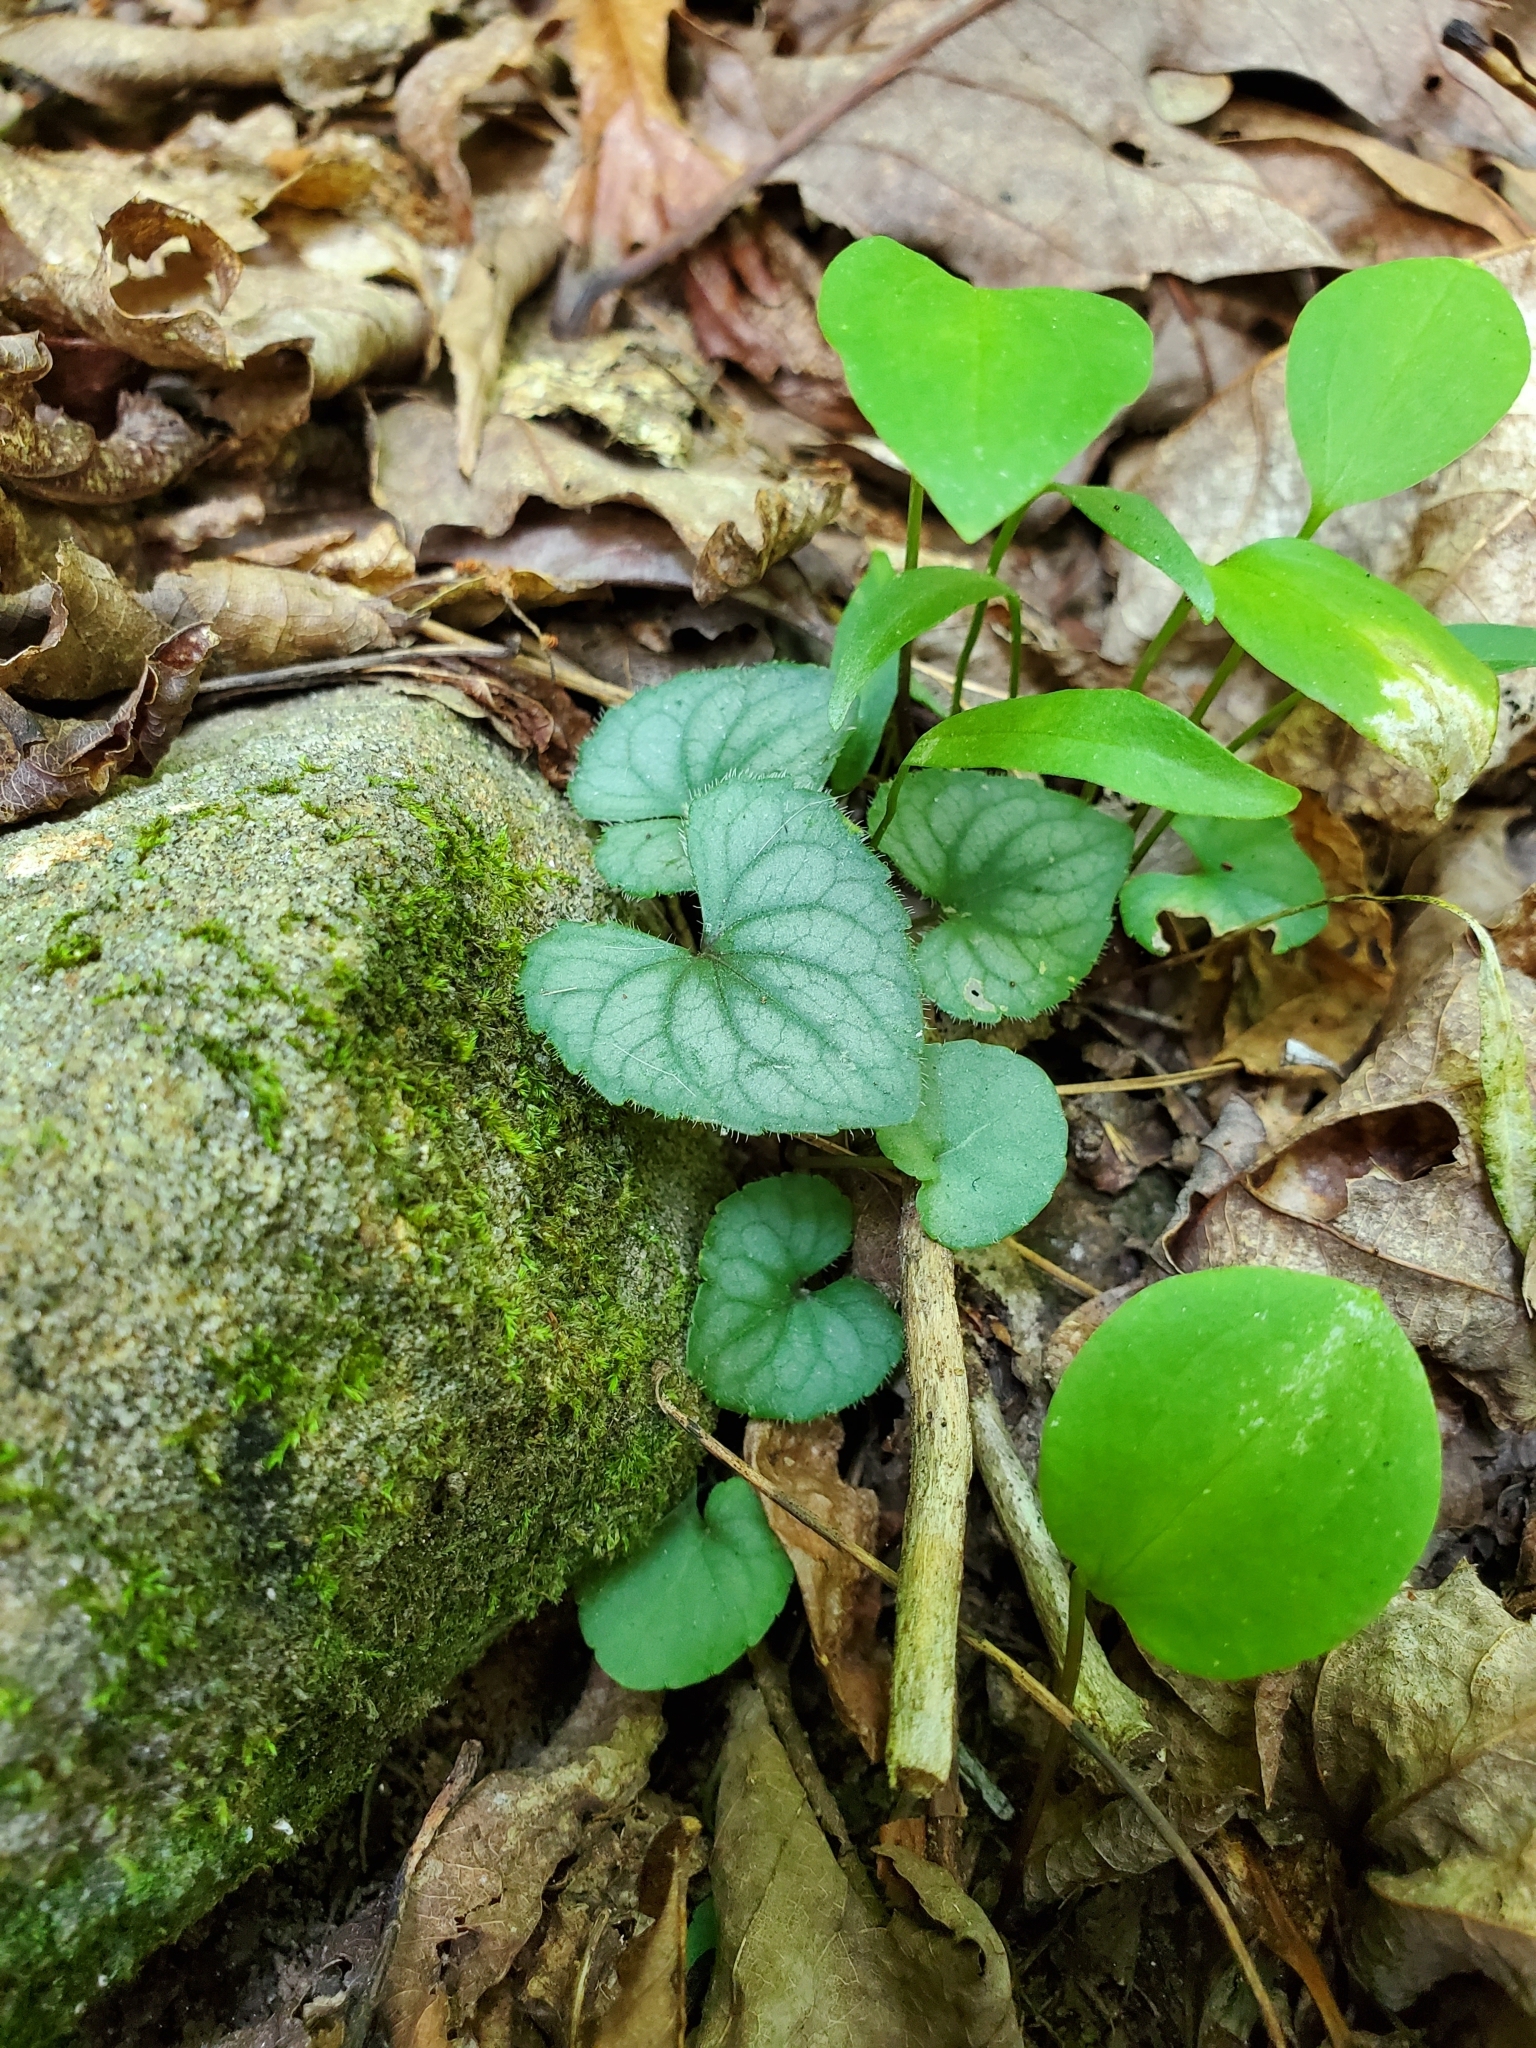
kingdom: Plantae
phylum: Tracheophyta
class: Magnoliopsida
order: Malpighiales
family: Violaceae
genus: Viola
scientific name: Viola hirsutula
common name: Southern wood violet
